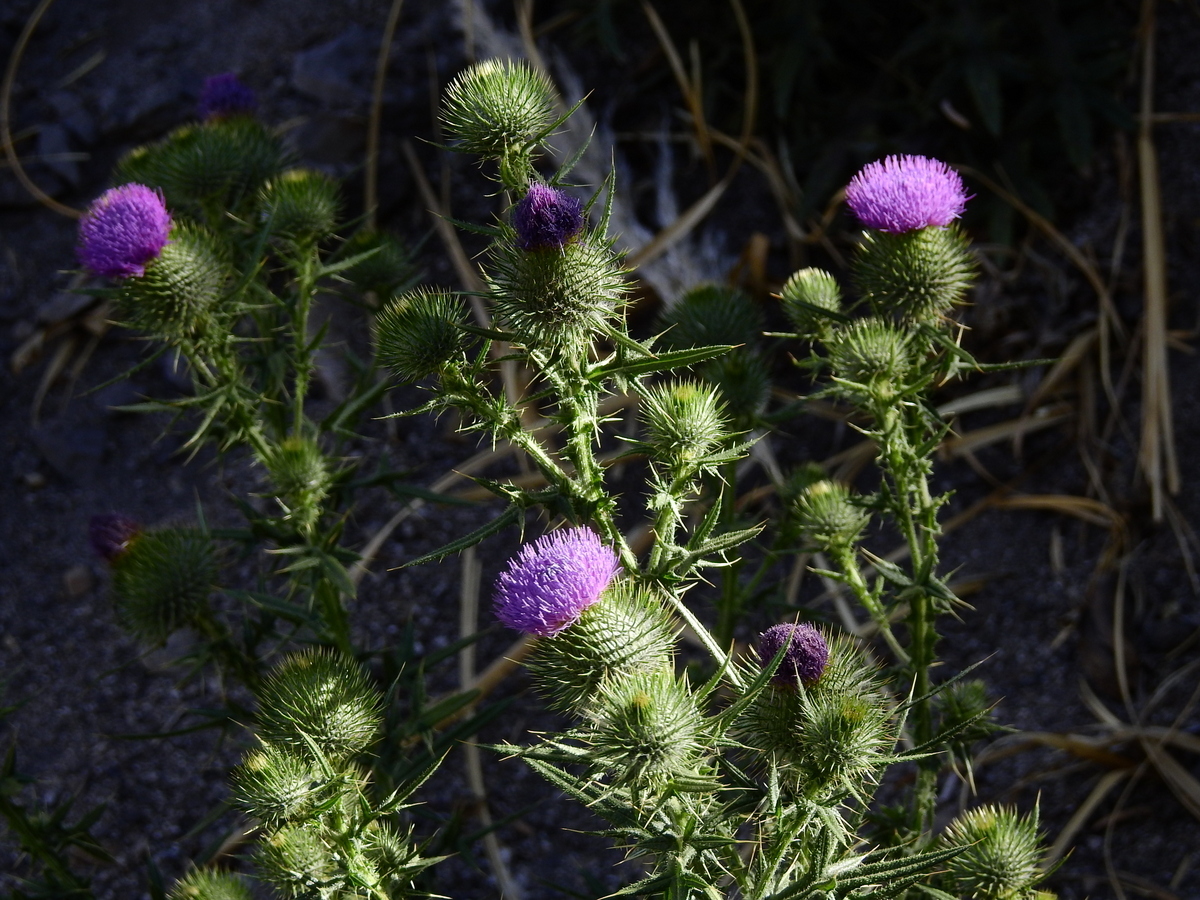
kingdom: Plantae
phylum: Tracheophyta
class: Magnoliopsida
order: Asterales
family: Asteraceae
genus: Cirsium
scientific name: Cirsium vulgare
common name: Bull thistle
